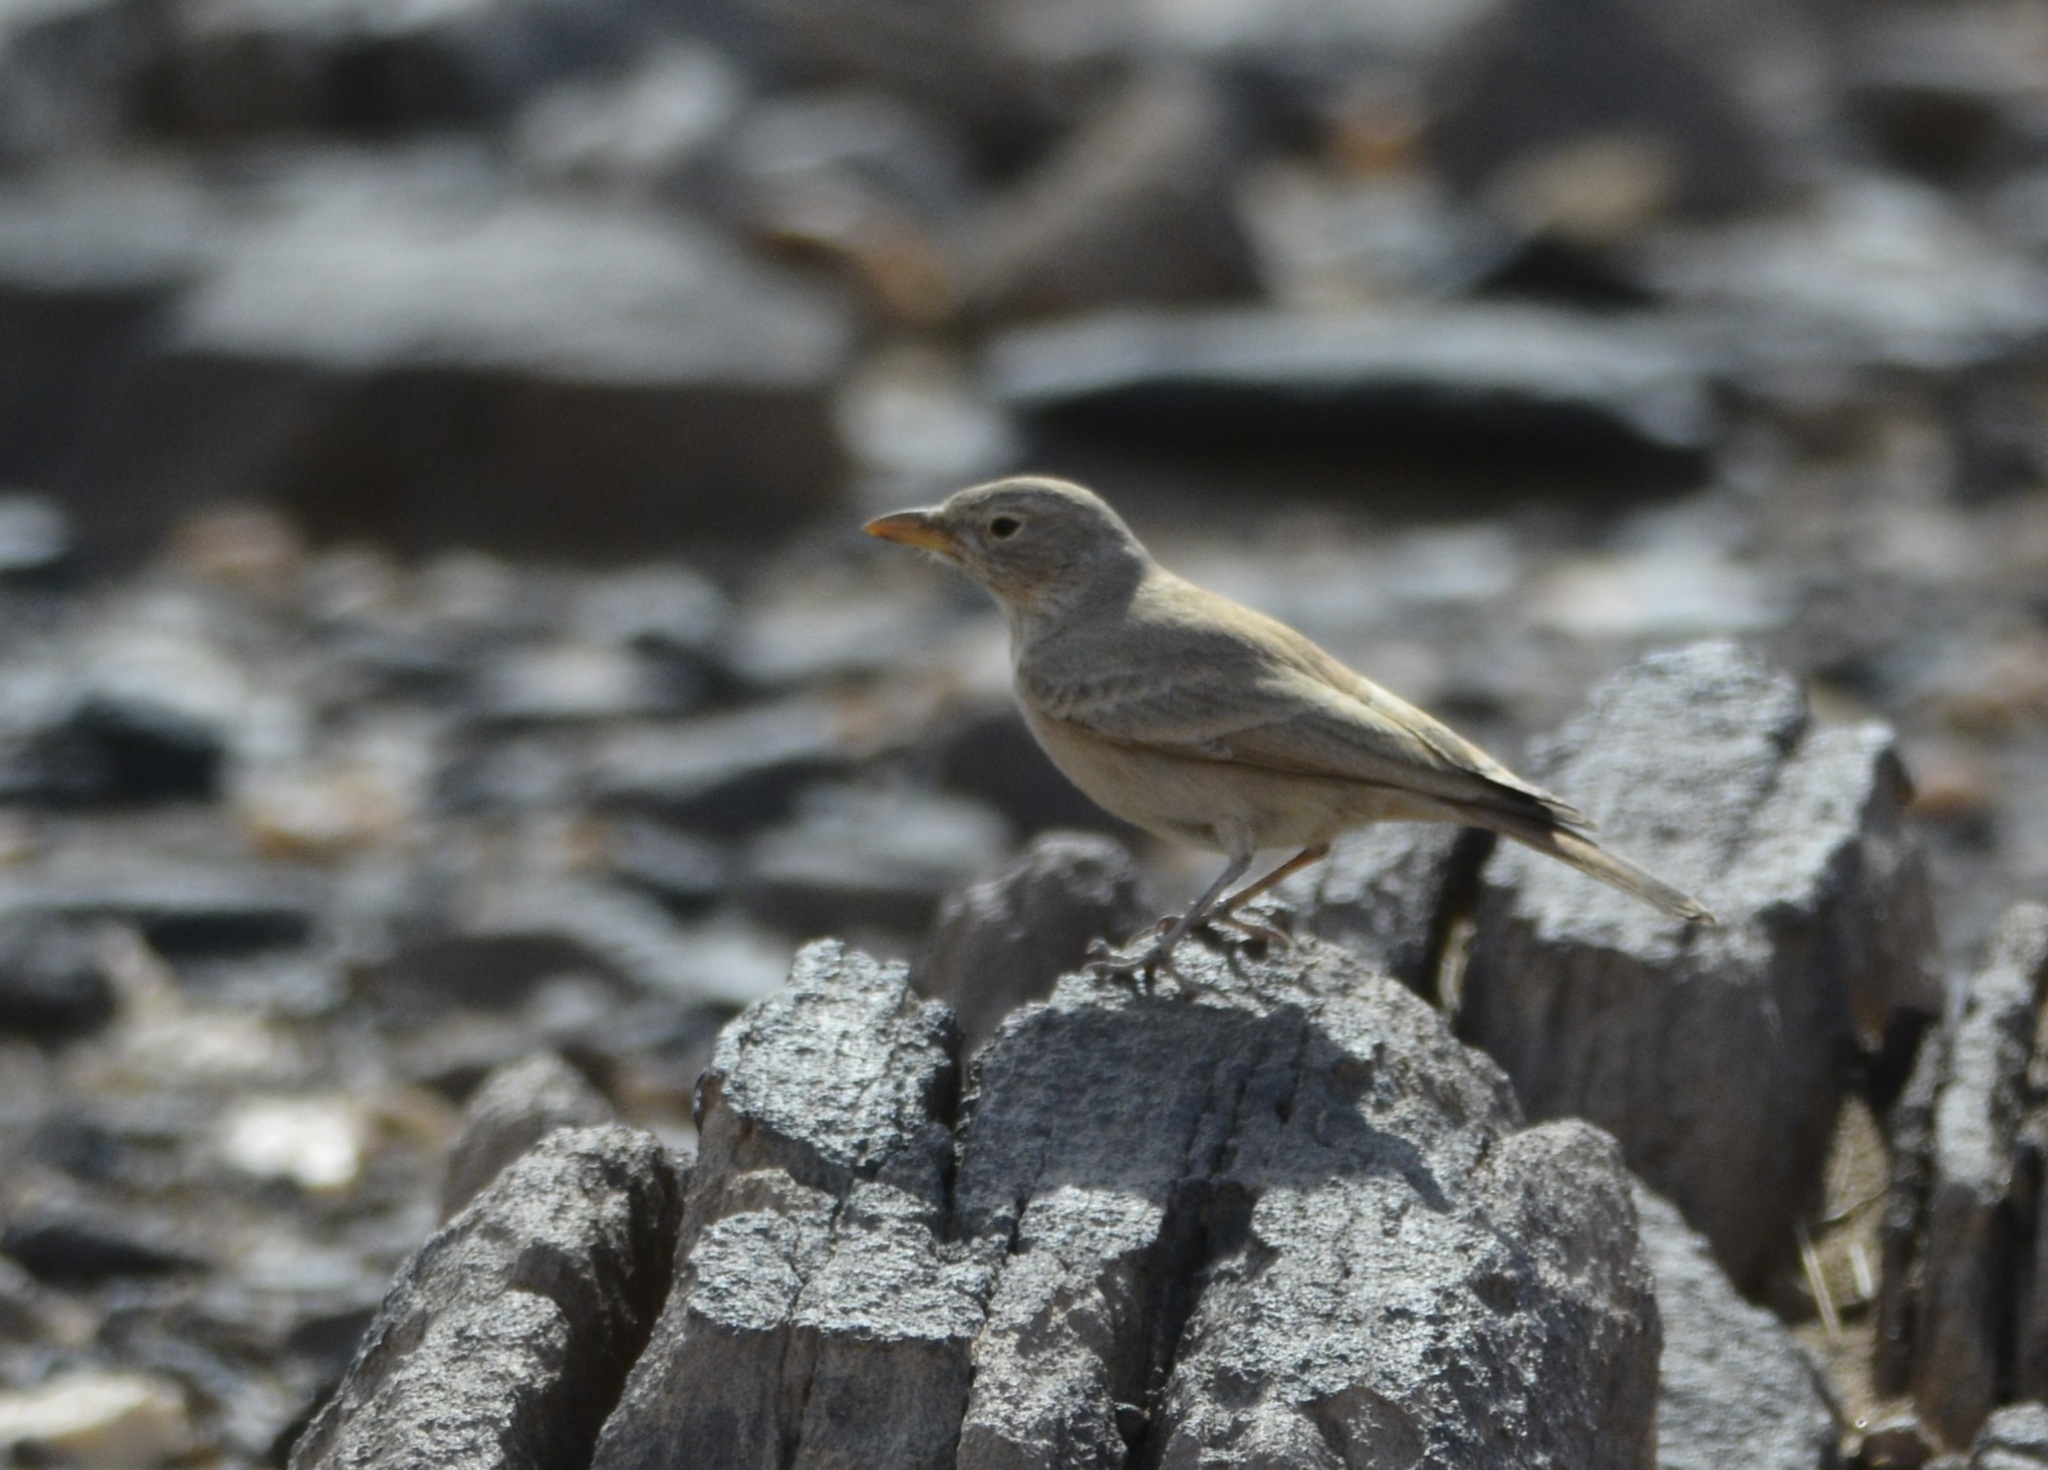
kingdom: Animalia
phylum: Chordata
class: Aves
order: Passeriformes
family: Alaudidae
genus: Ammomanes
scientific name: Ammomanes deserti
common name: Desert lark
